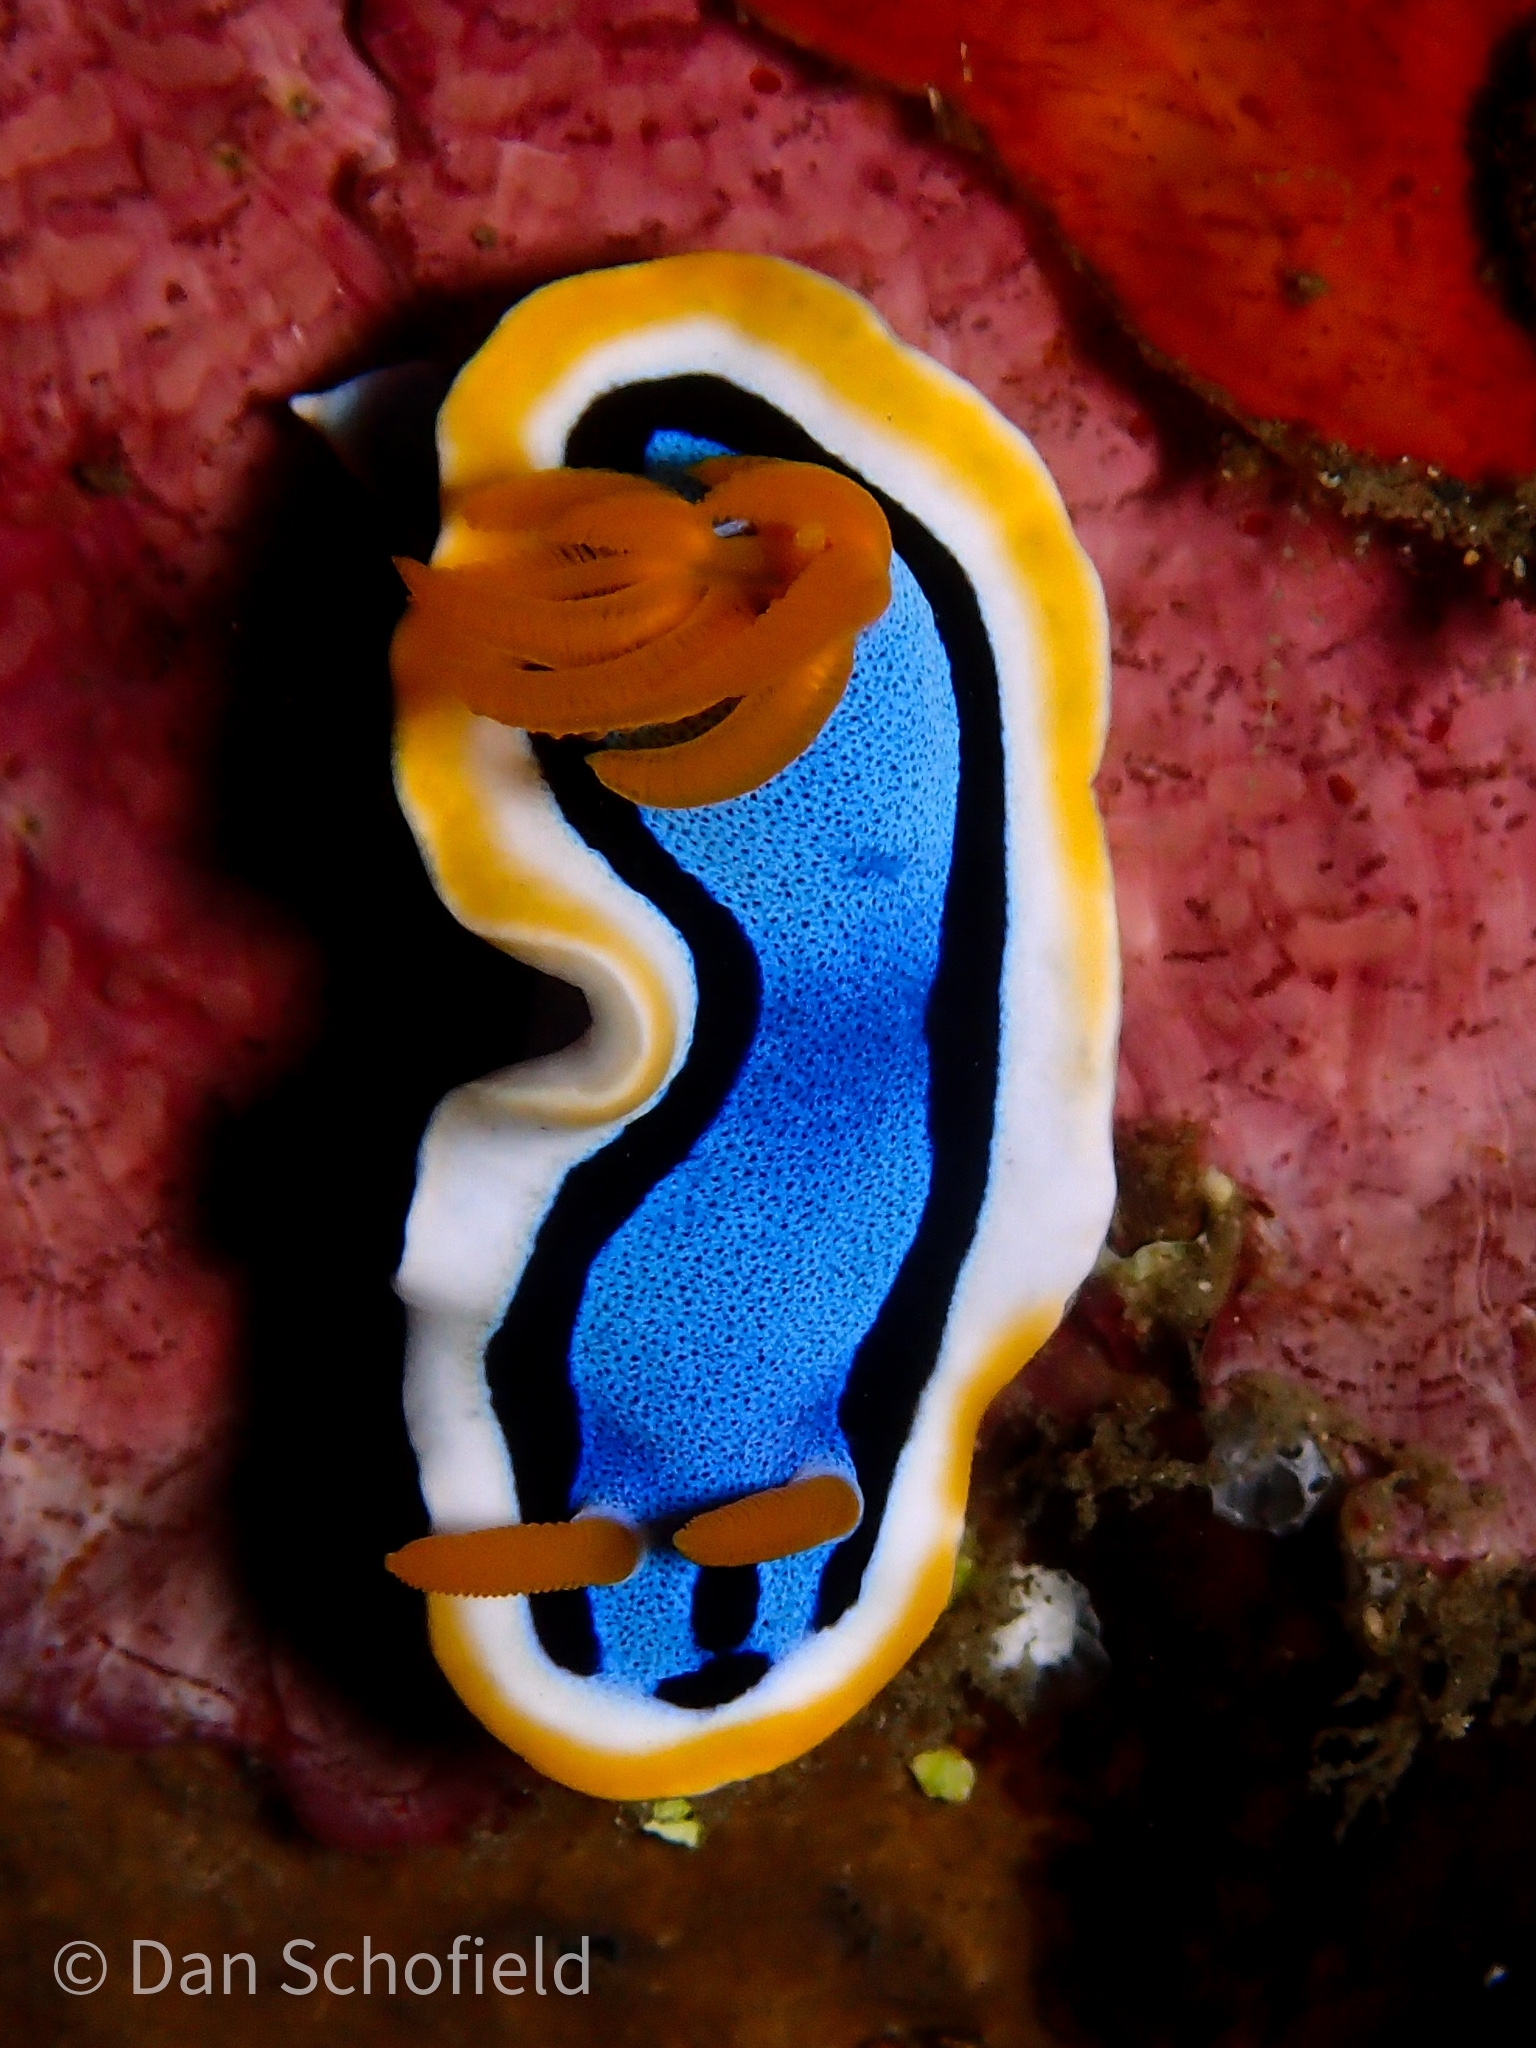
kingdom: Animalia
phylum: Mollusca
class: Gastropoda
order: Nudibranchia
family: Chromodorididae
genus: Chromodoris
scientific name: Chromodoris annae
